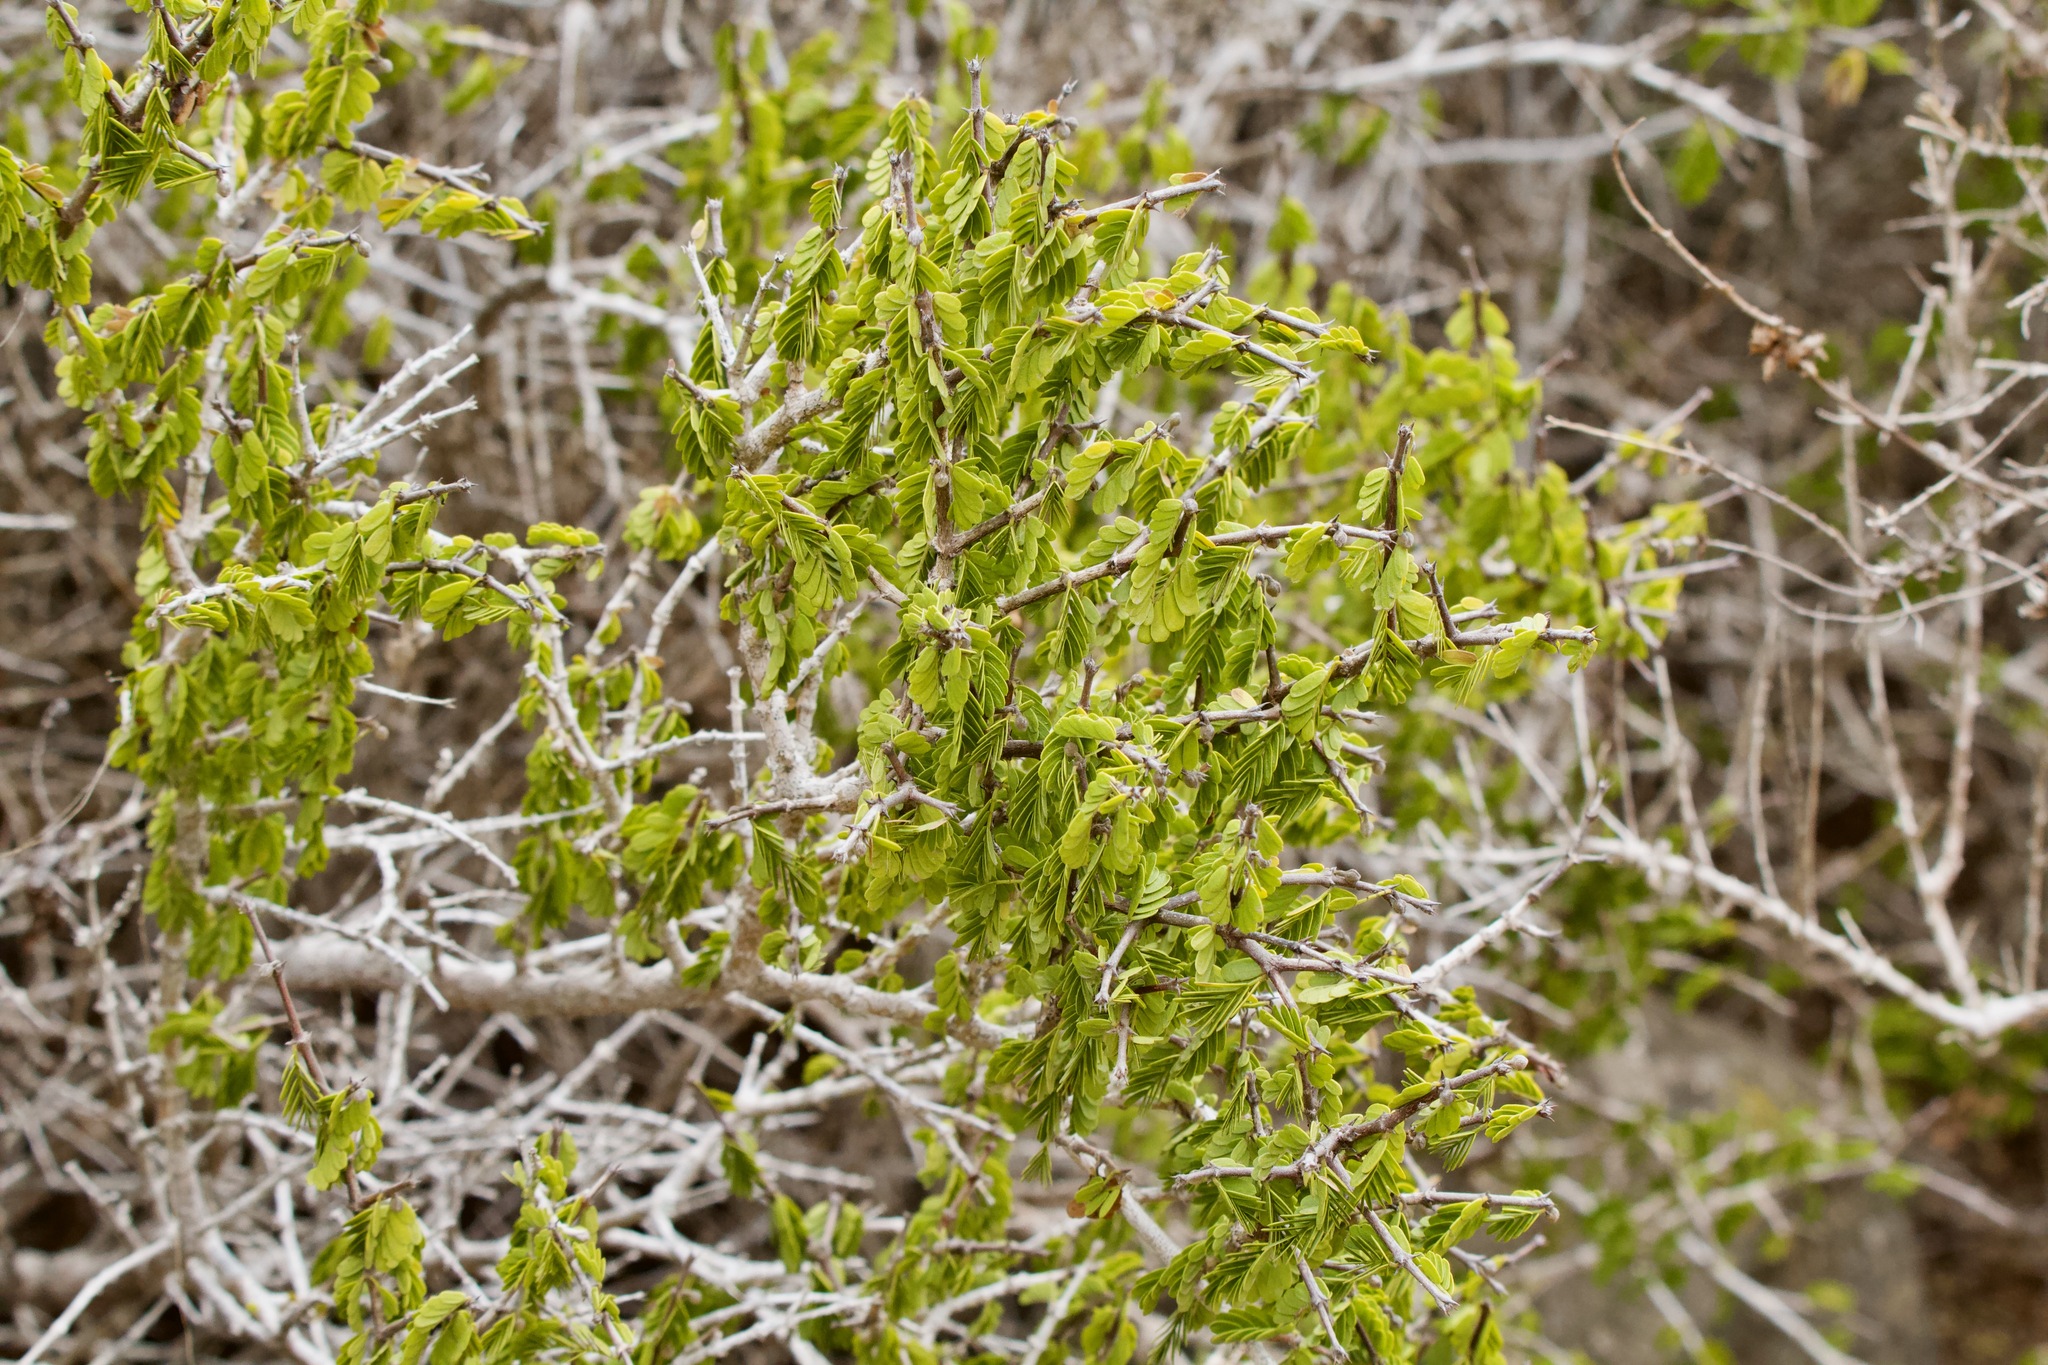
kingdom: Plantae
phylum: Tracheophyta
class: Magnoliopsida
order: Zygophyllales
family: Zygophyllaceae
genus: Porlieria
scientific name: Porlieria chilensis
